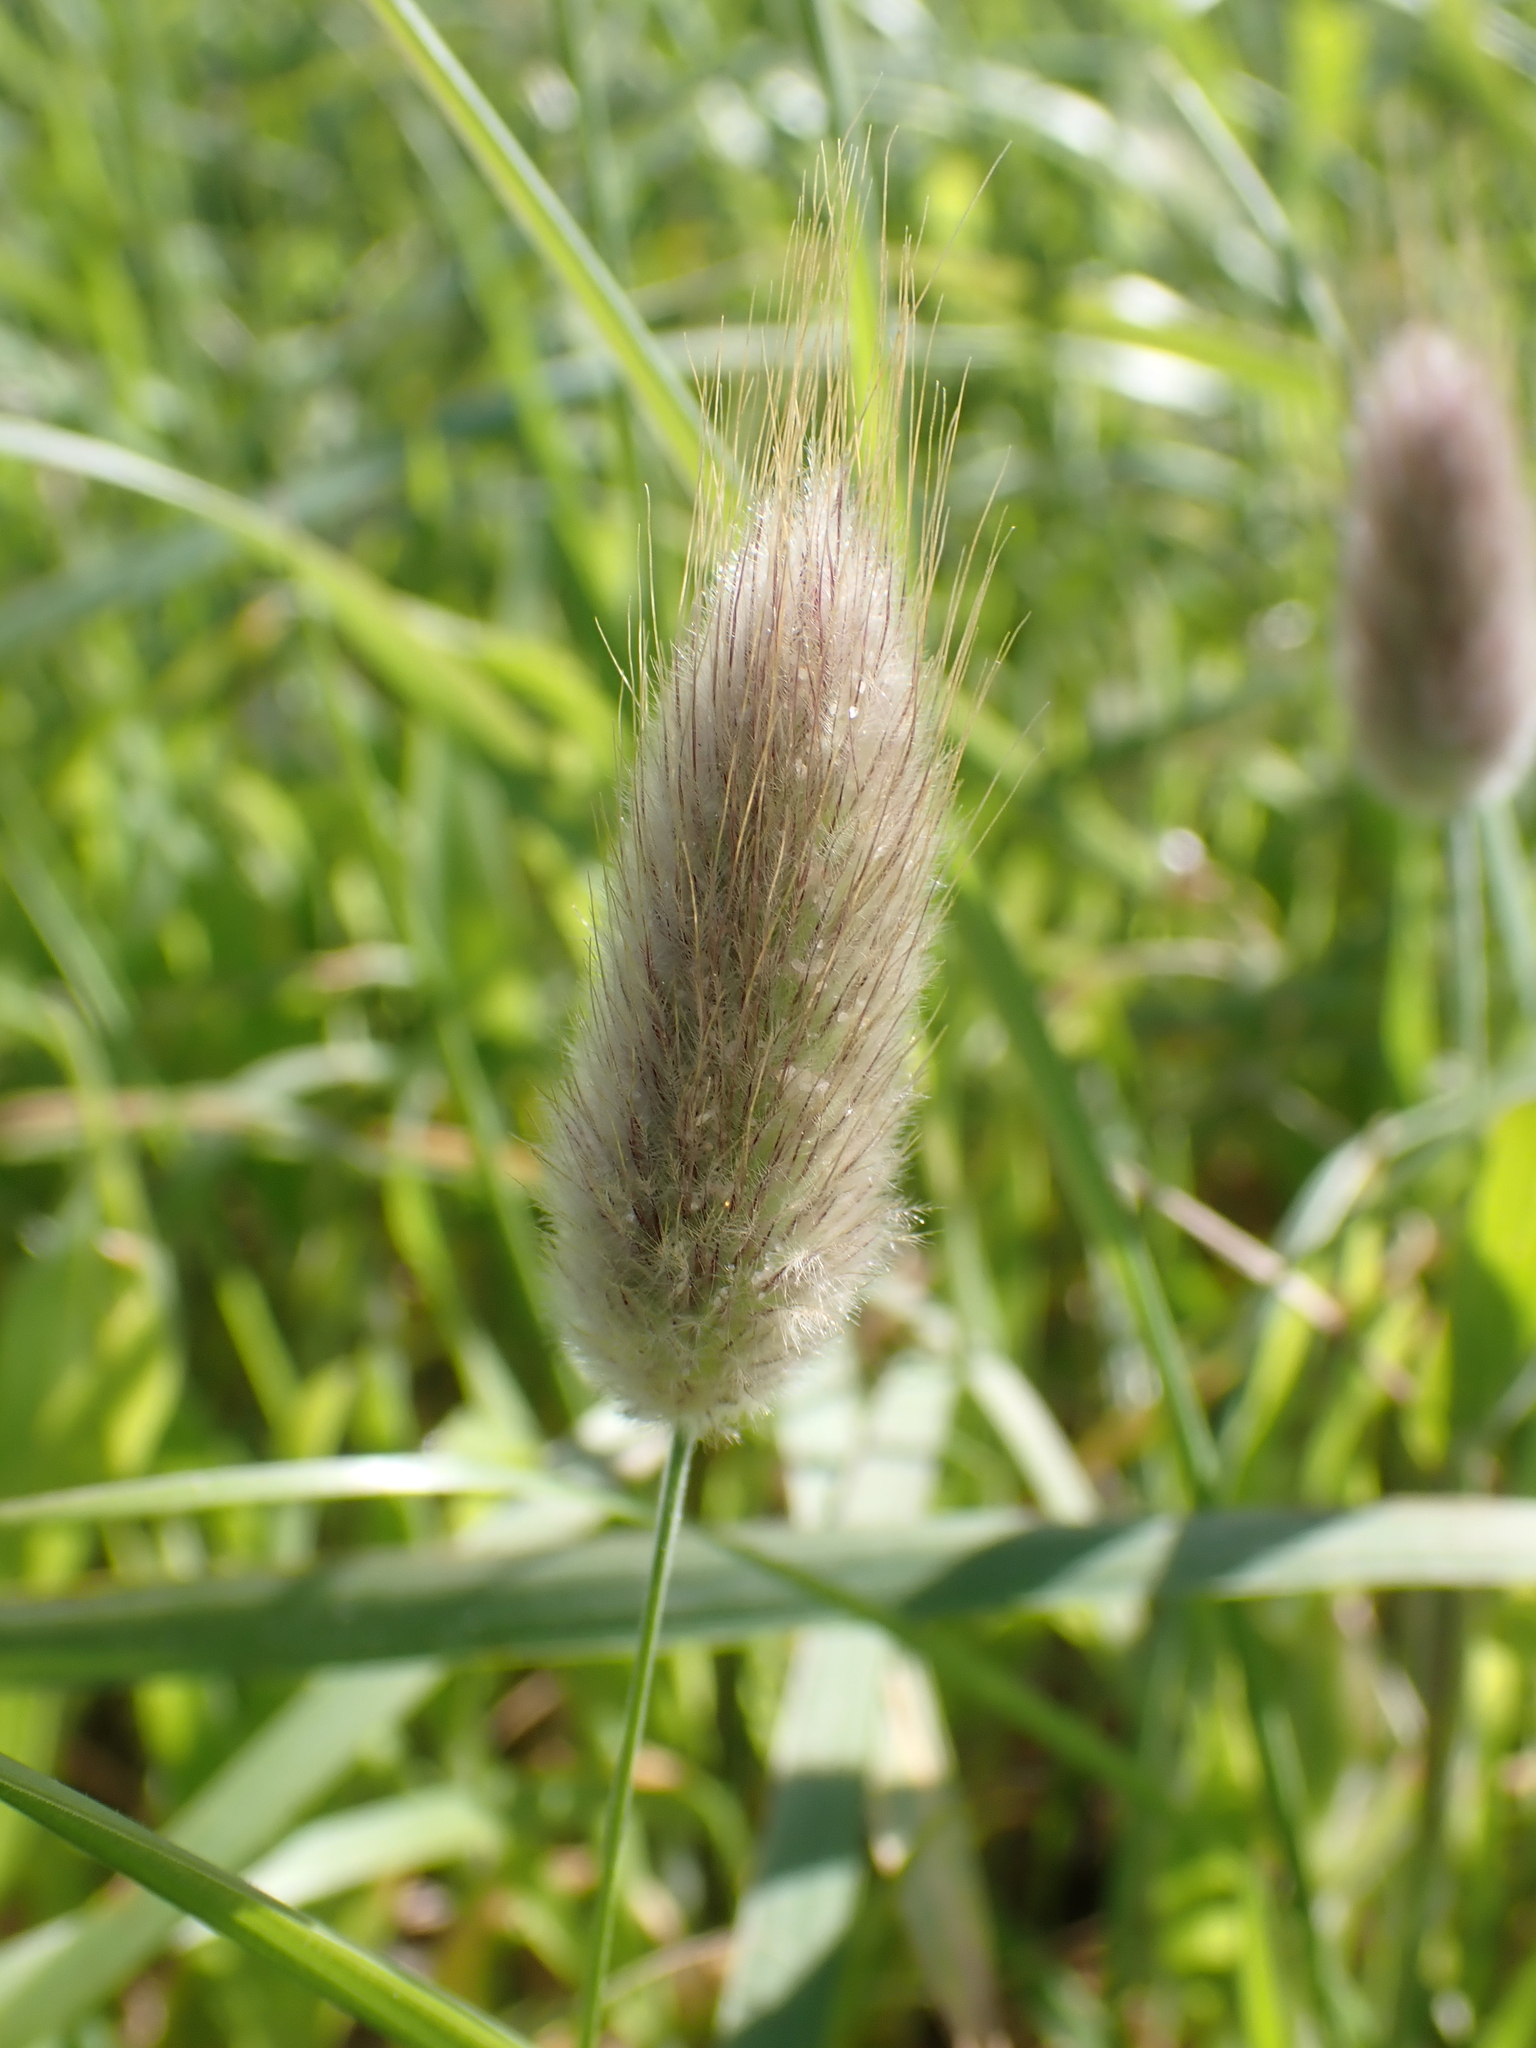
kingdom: Plantae
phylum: Tracheophyta
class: Liliopsida
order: Poales
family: Poaceae
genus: Lagurus
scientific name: Lagurus ovatus
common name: Hare's-tail
